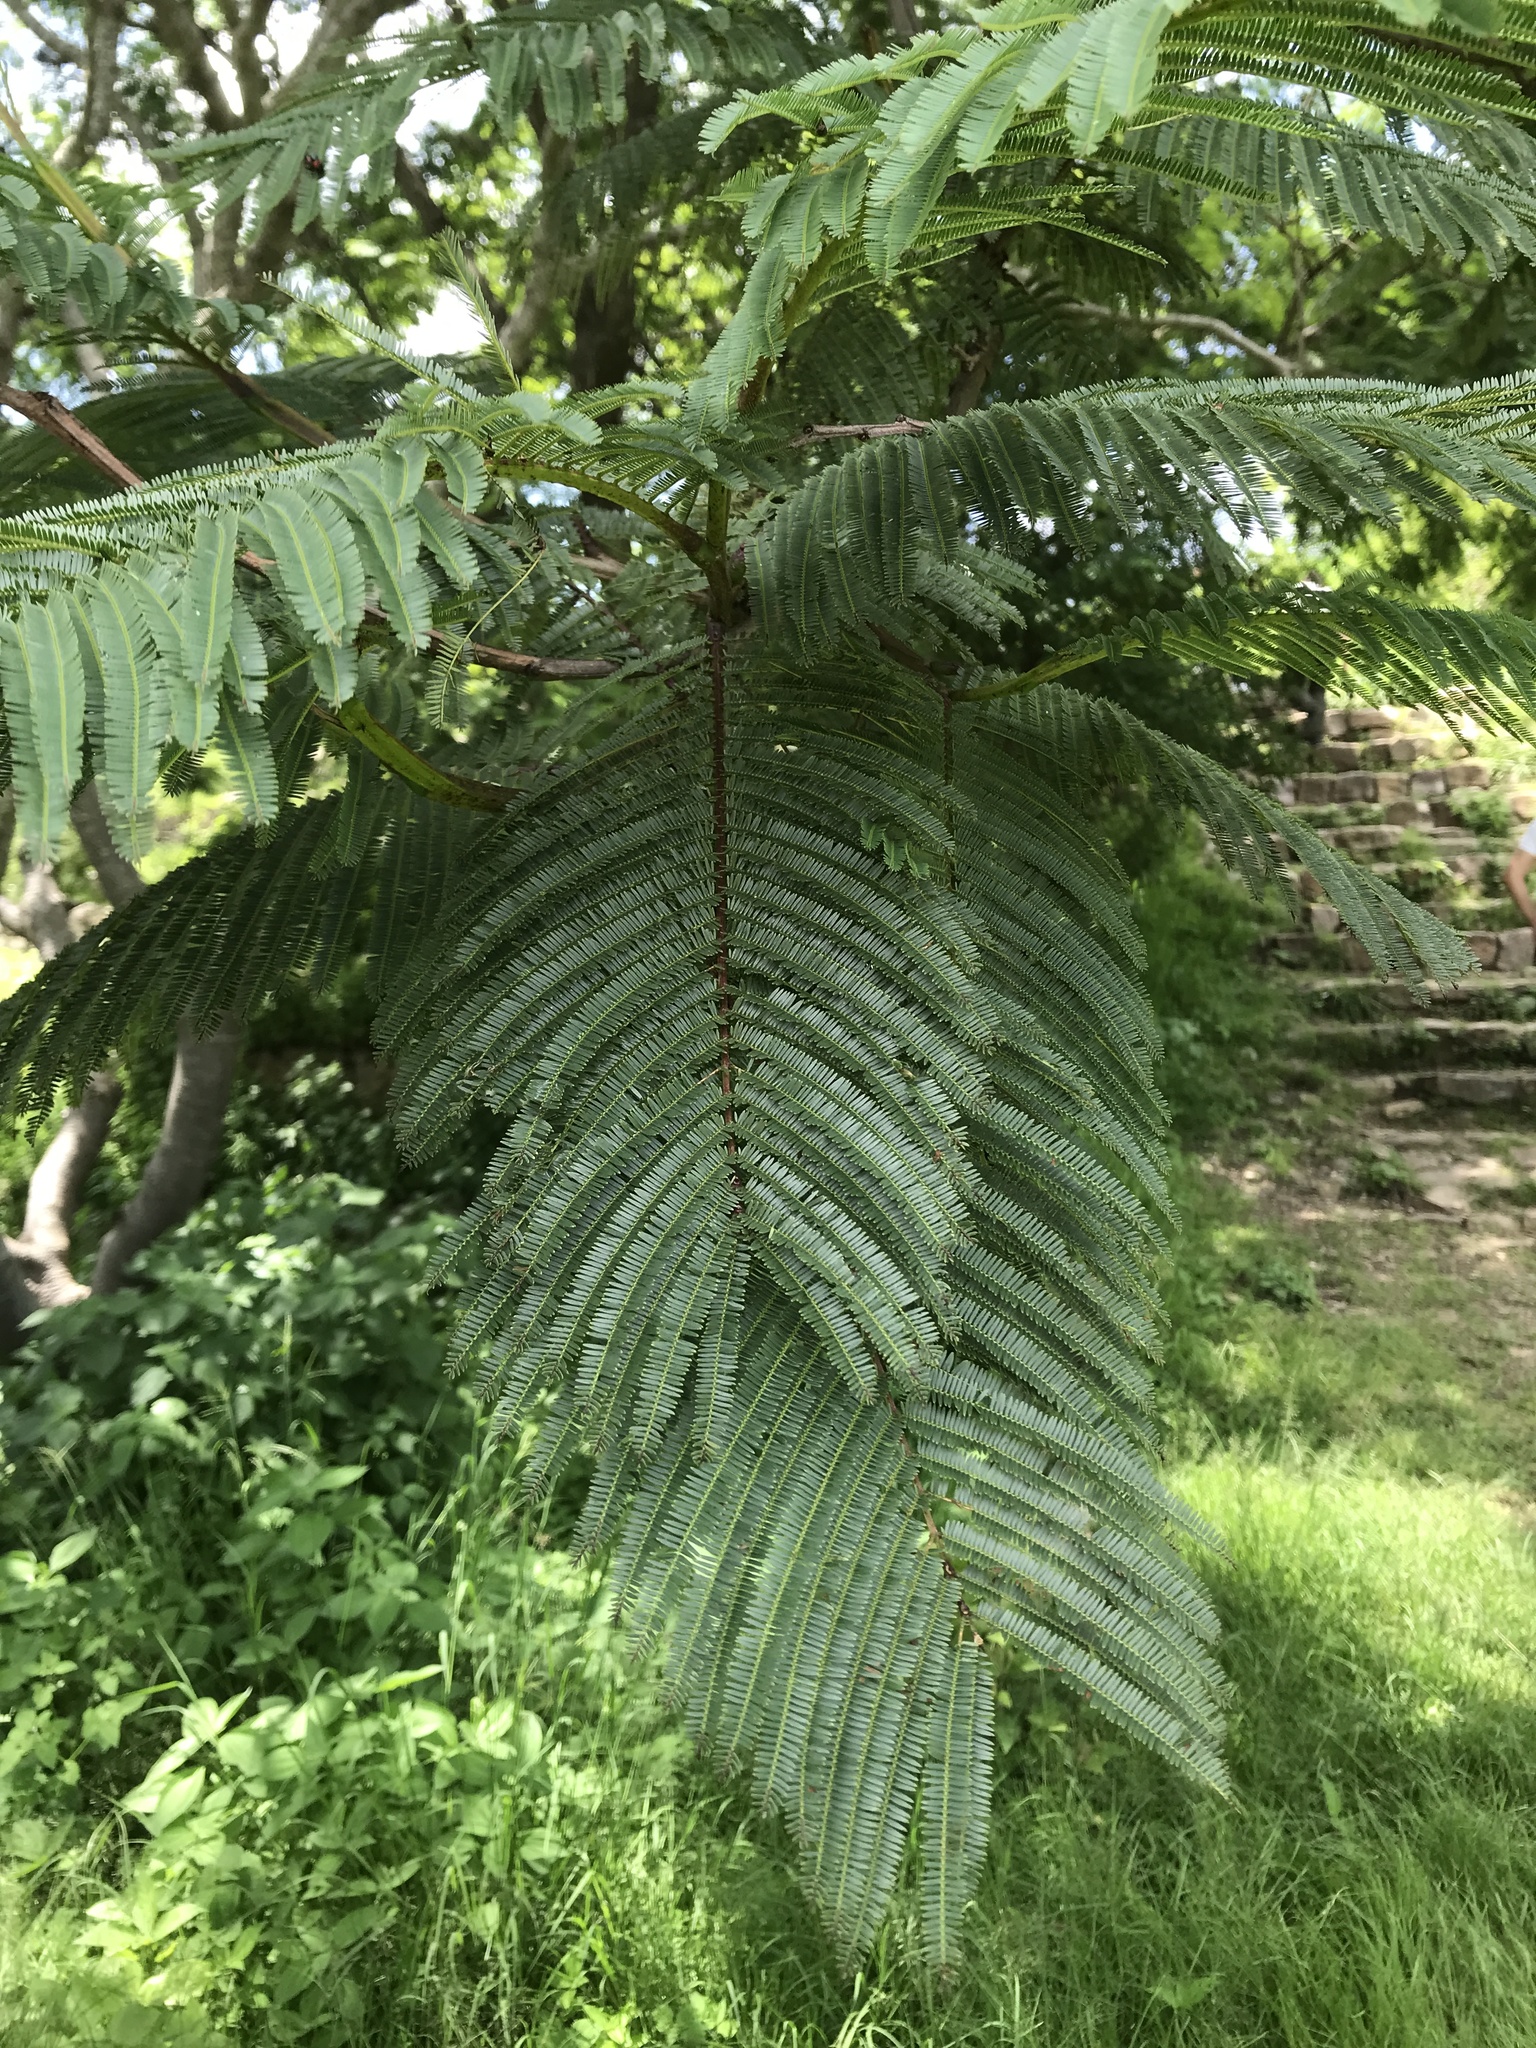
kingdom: Plantae
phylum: Tracheophyta
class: Magnoliopsida
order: Fabales
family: Fabaceae
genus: Vachellia
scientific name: Vachellia pennatula
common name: Fern-leaf acacia
